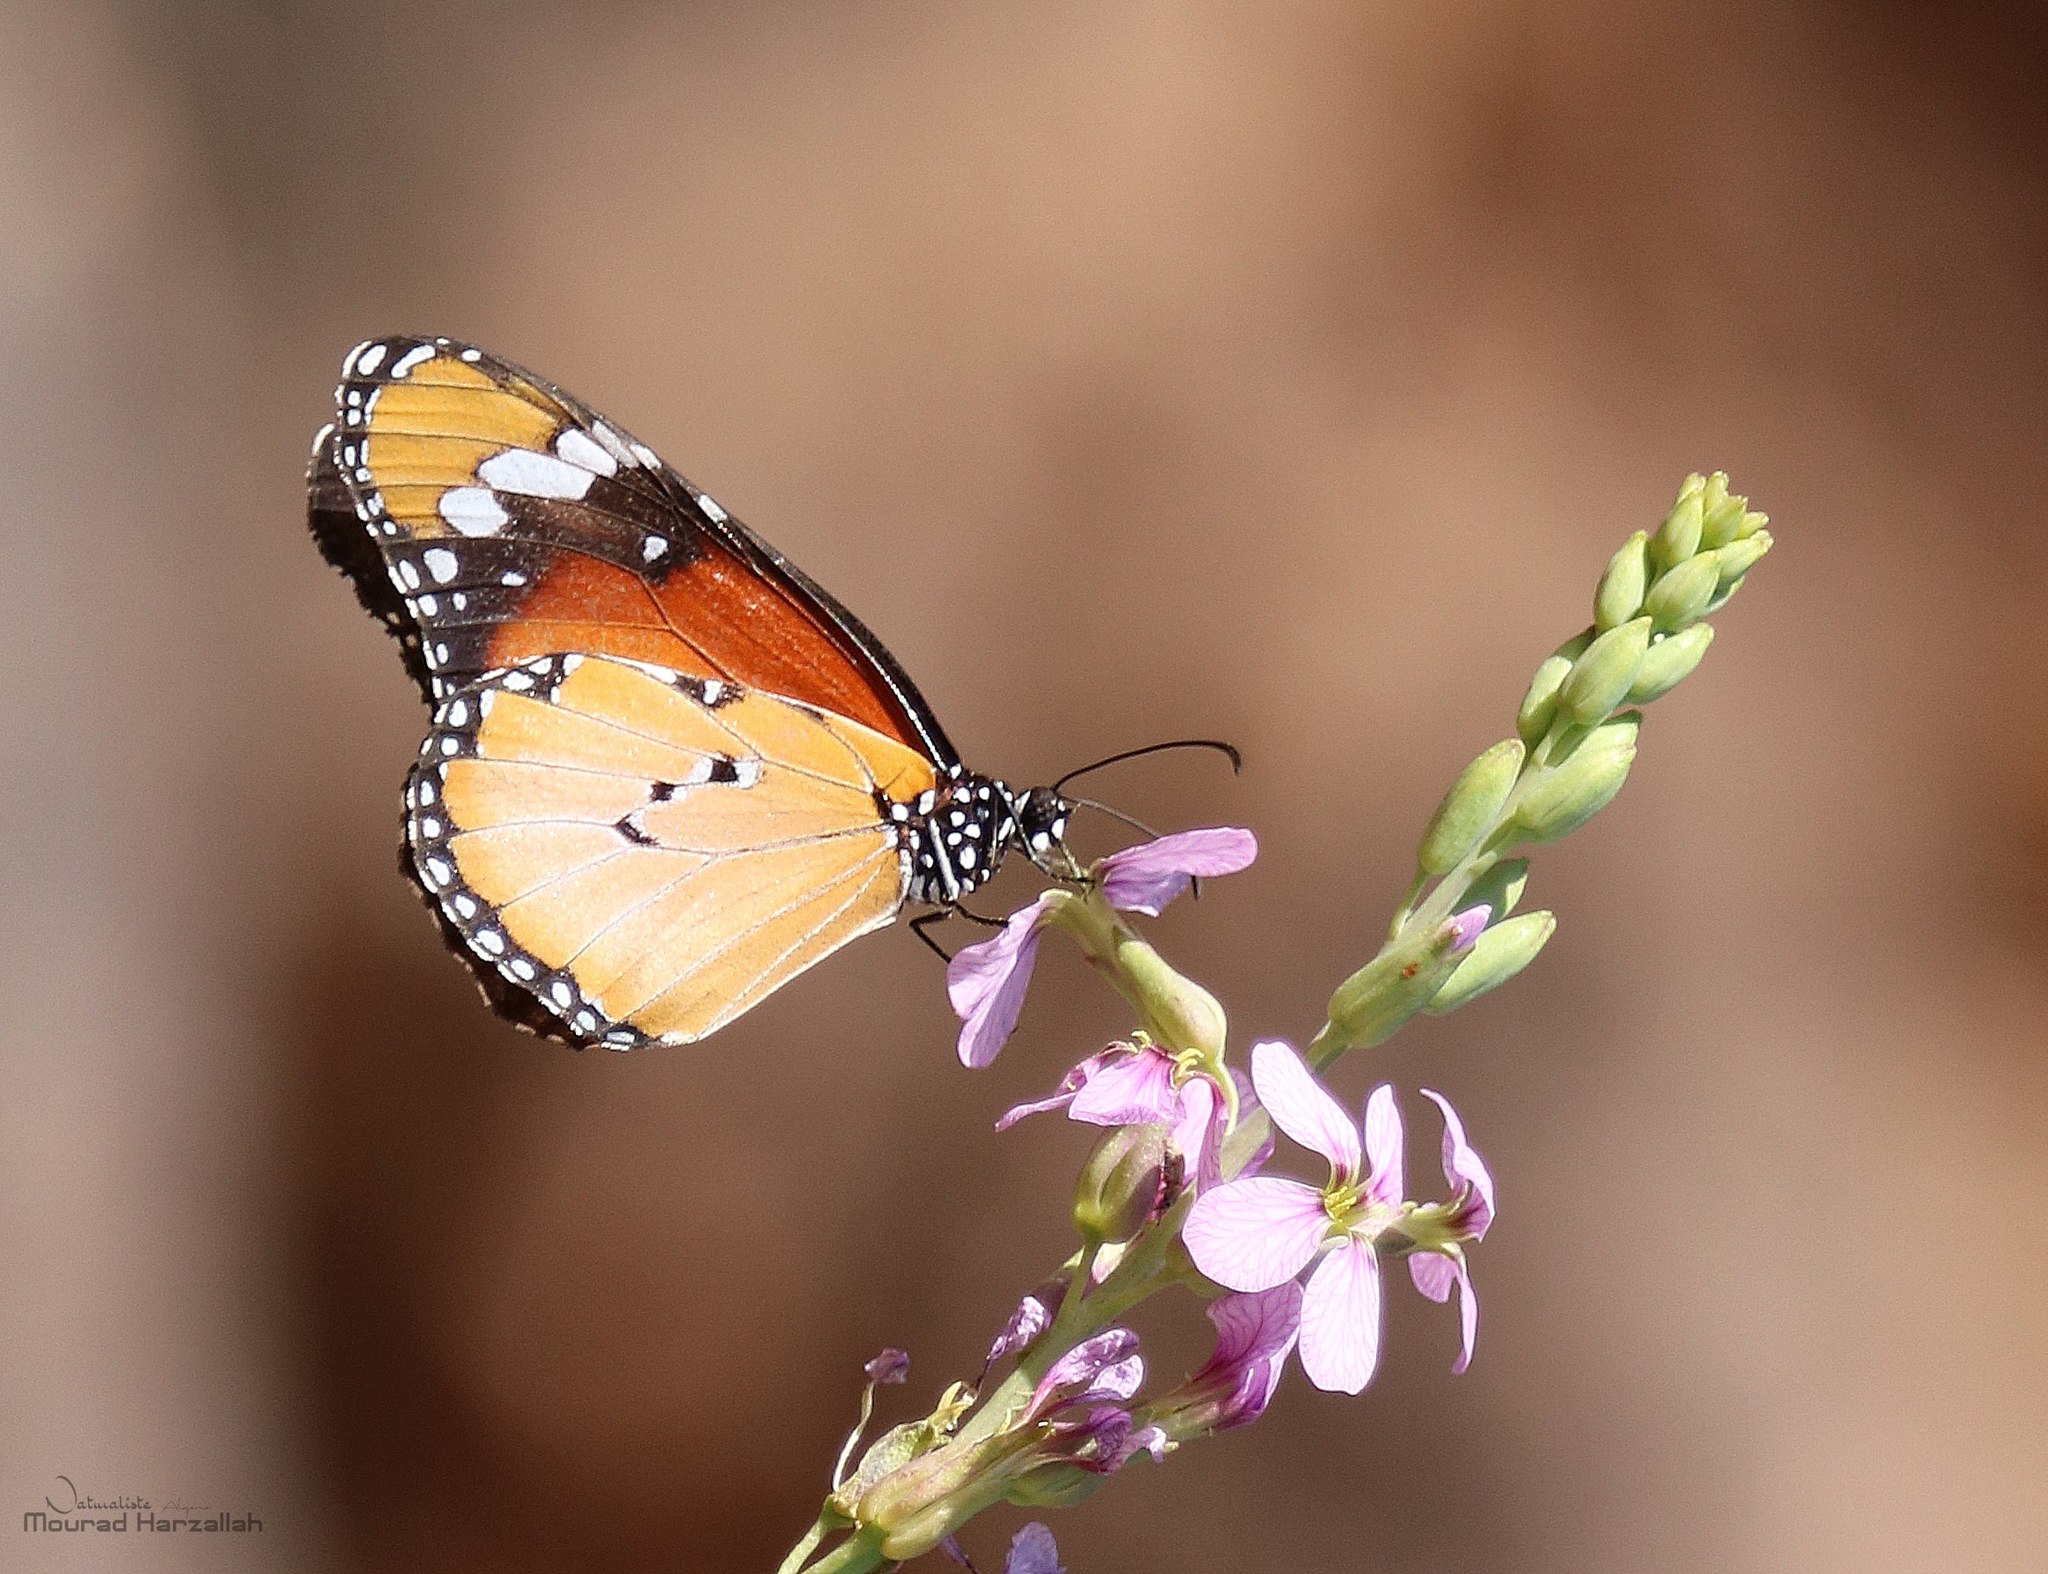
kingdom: Animalia
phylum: Arthropoda
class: Insecta
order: Lepidoptera
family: Nymphalidae
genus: Danaus
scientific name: Danaus chrysippus
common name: Plain tiger
